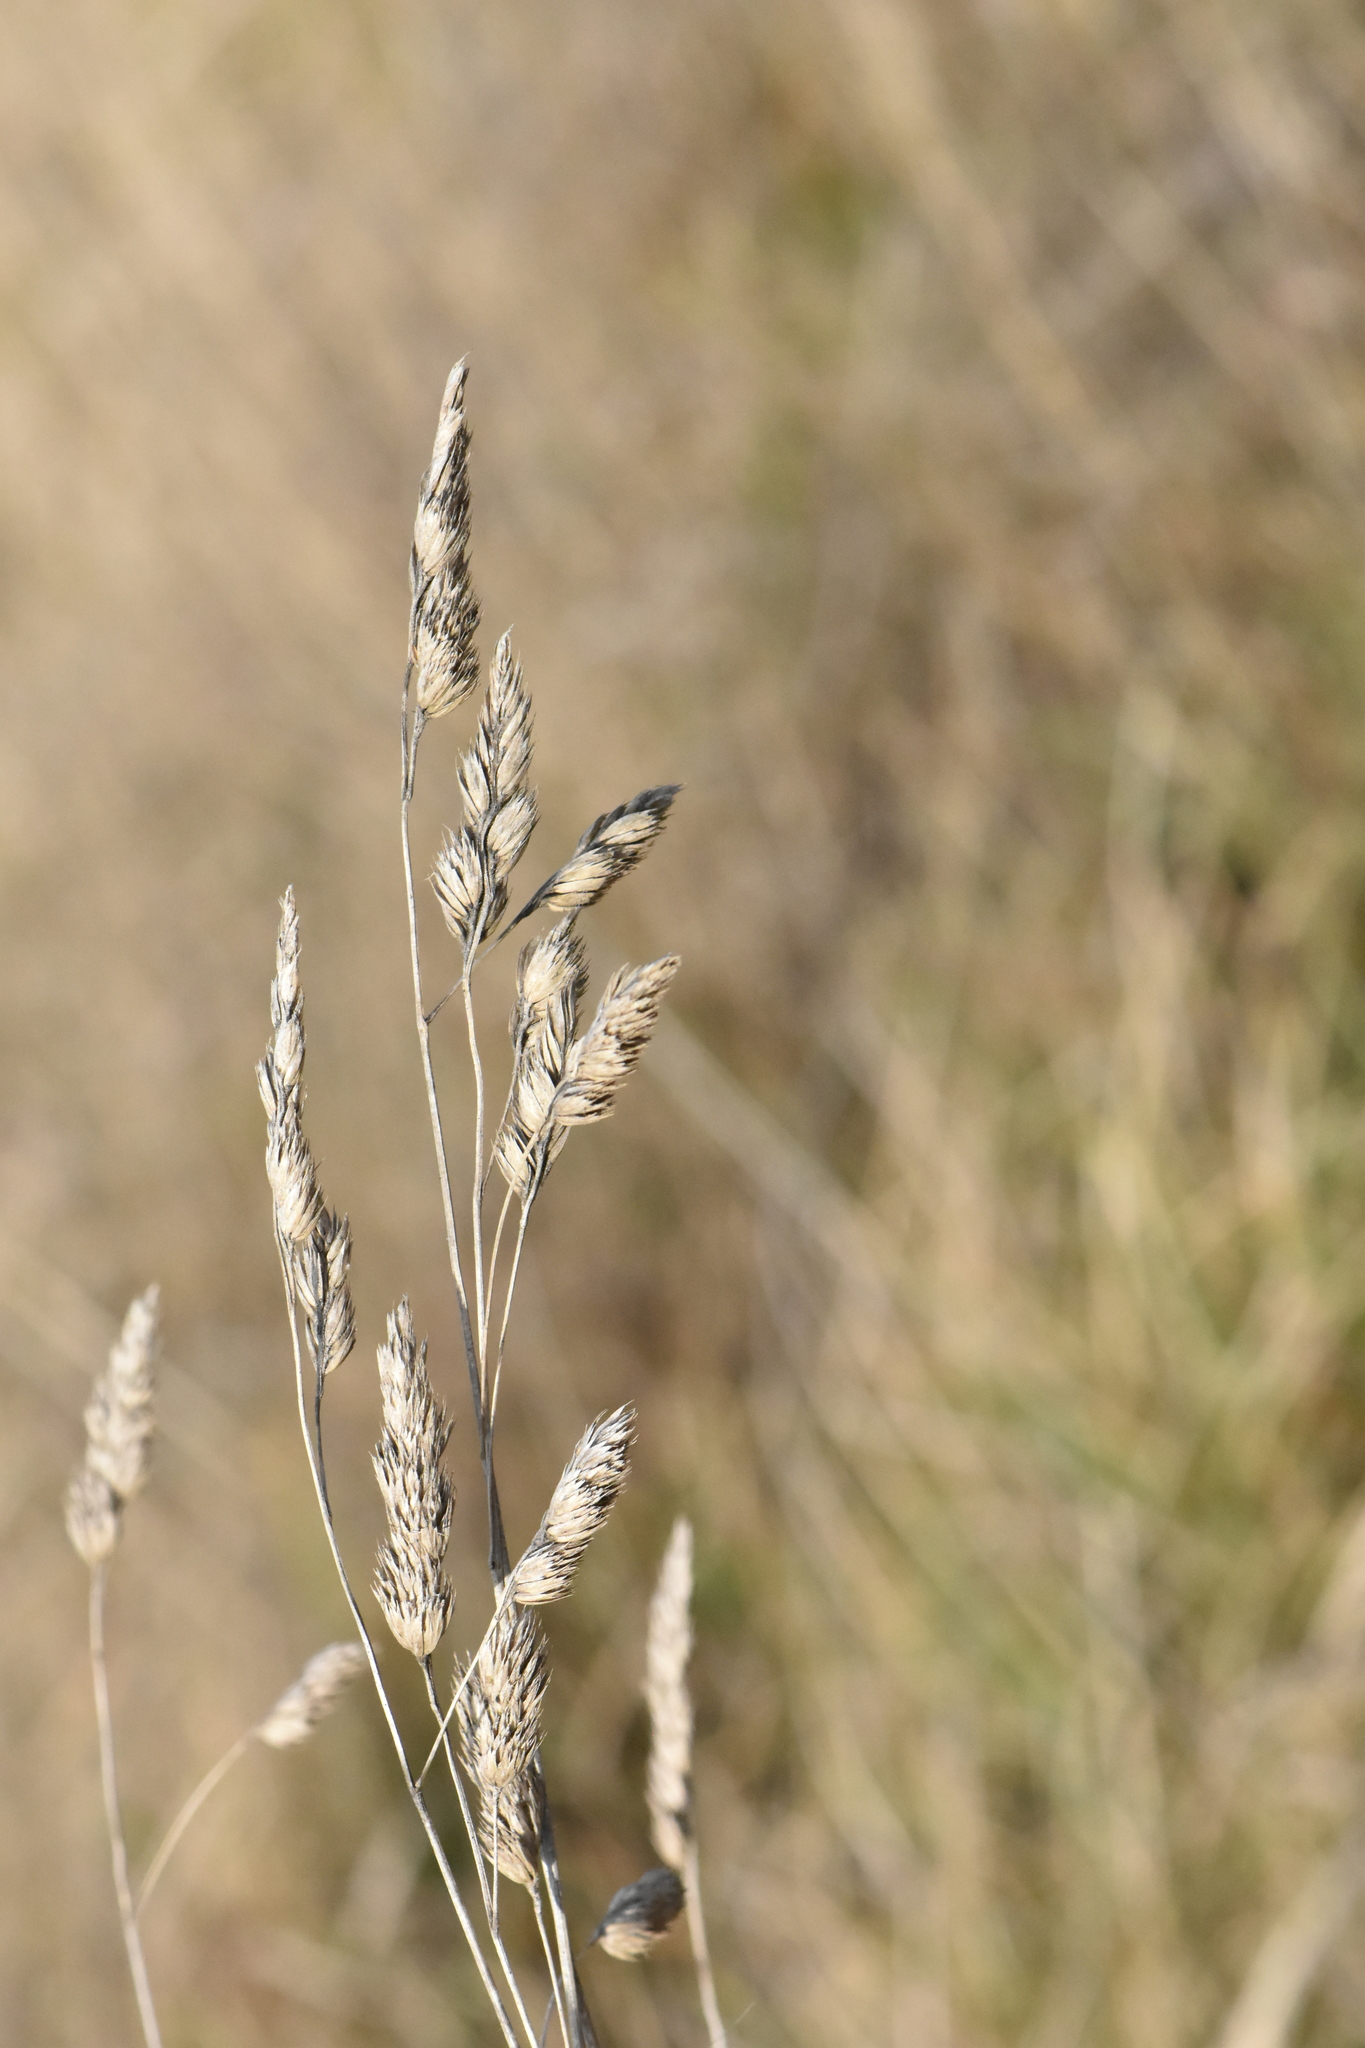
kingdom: Plantae
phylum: Tracheophyta
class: Liliopsida
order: Poales
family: Poaceae
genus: Dactylis
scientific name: Dactylis glomerata
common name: Orchardgrass
